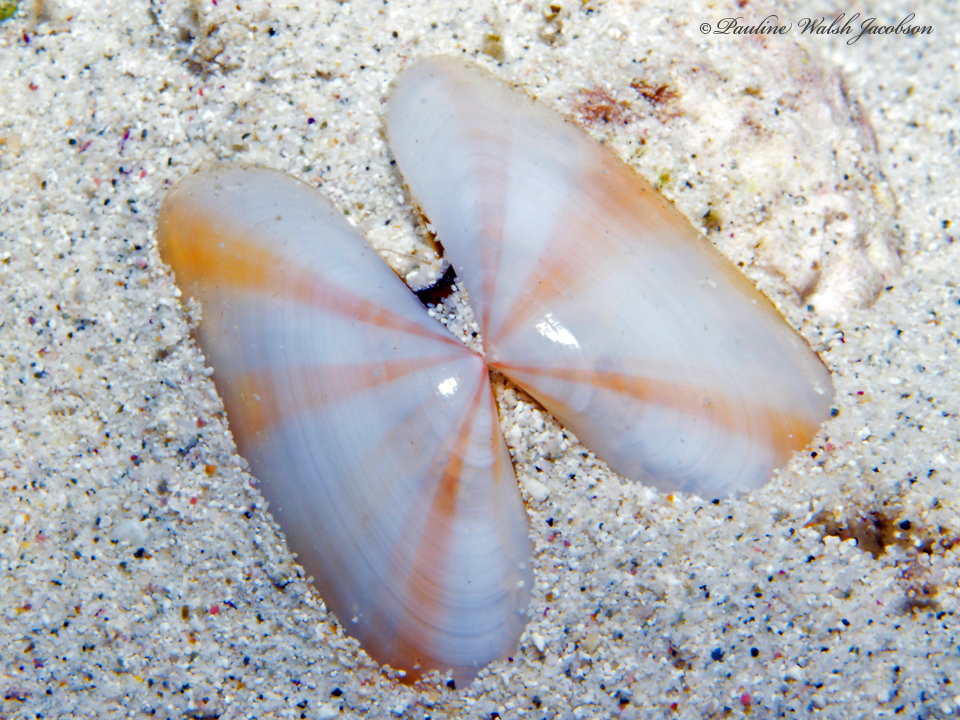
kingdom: Animalia
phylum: Mollusca
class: Bivalvia
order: Cardiida
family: Tellinidae
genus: Tellina
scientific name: Tellina radiata
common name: Sunrise tellin
